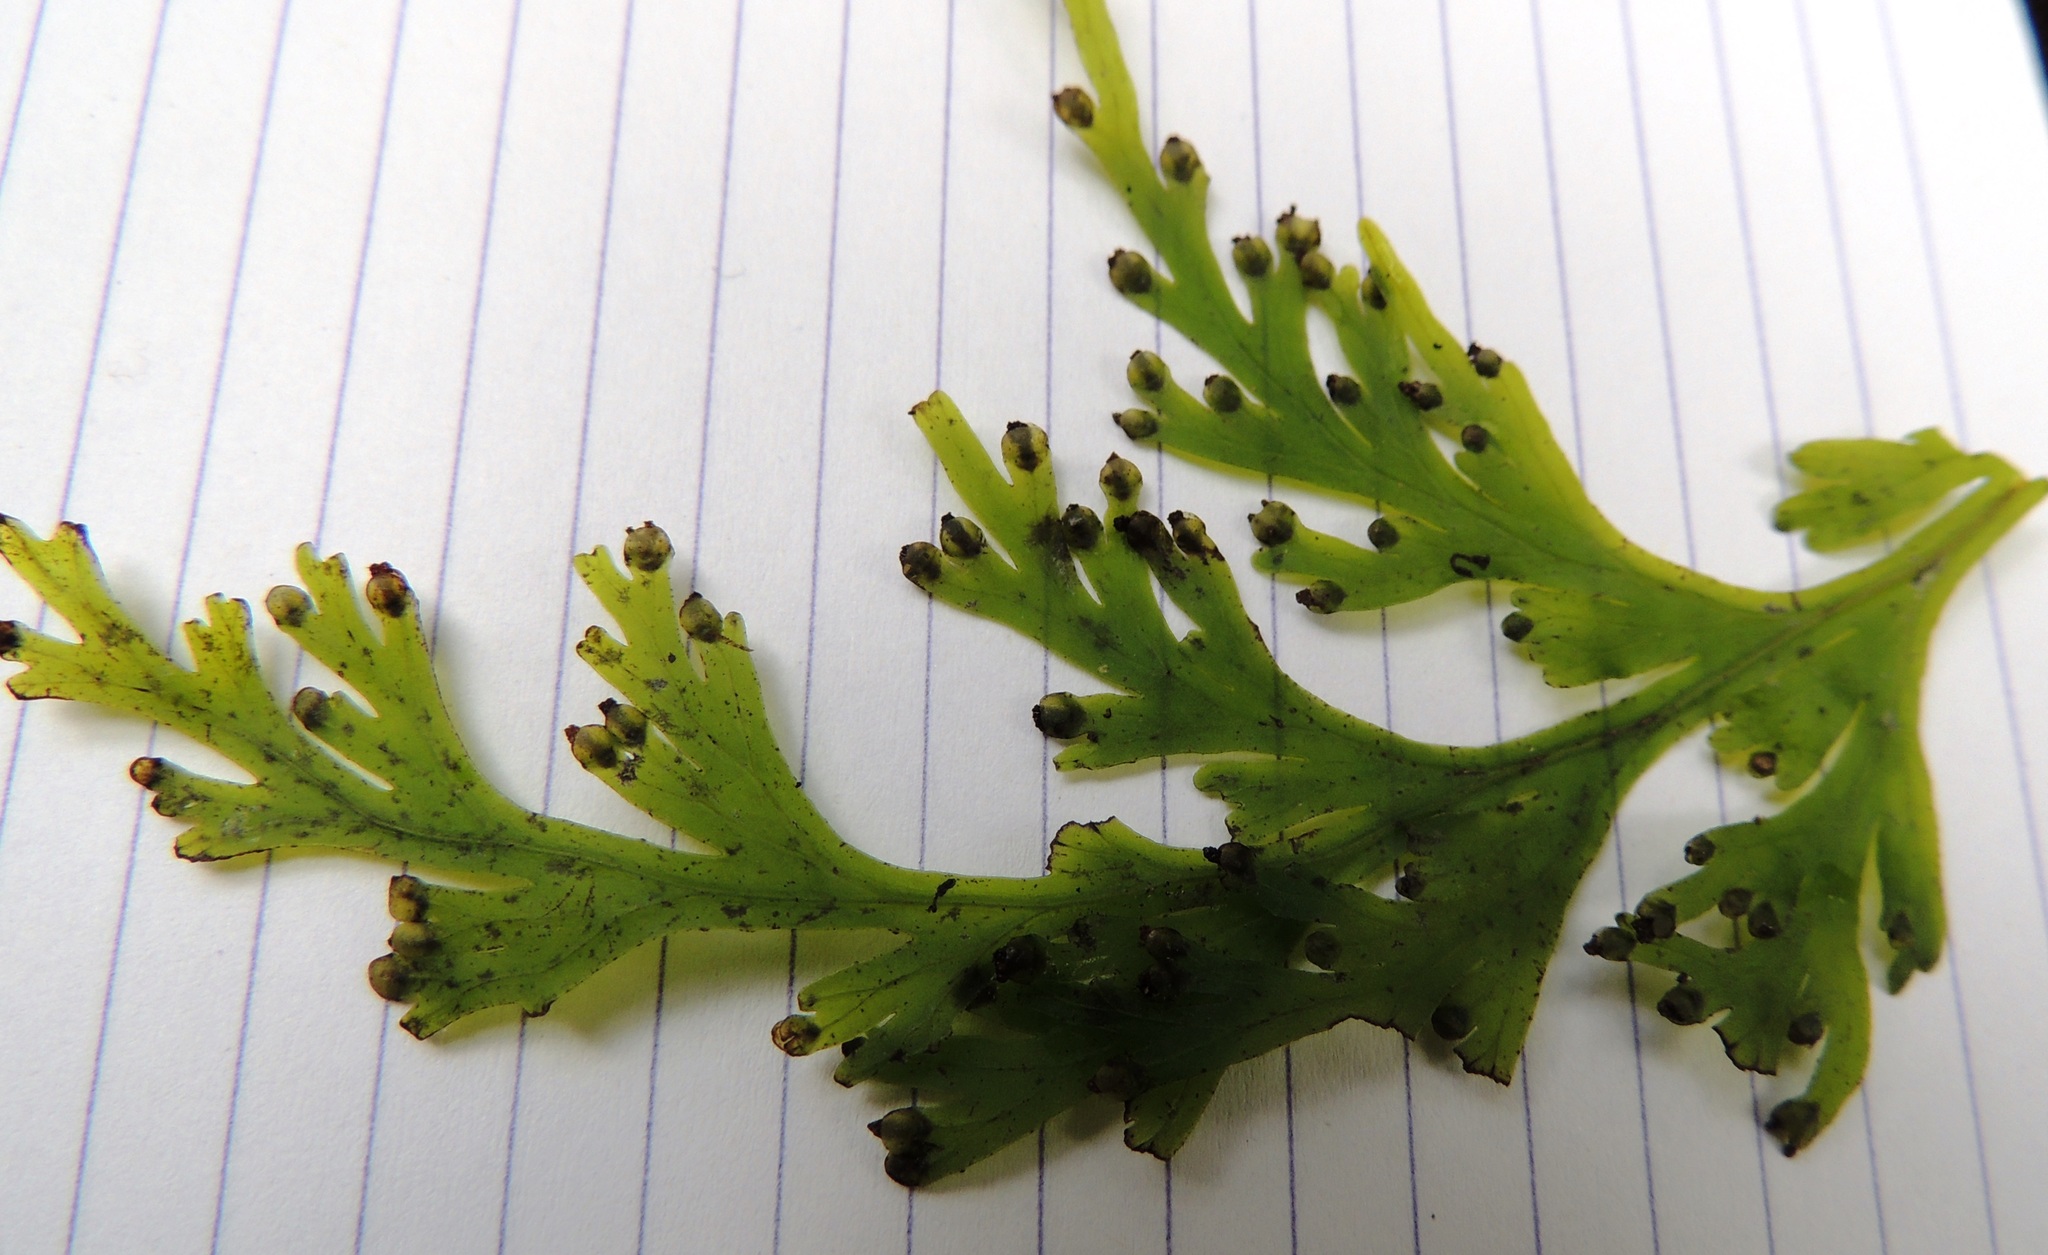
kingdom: Plantae
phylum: Tracheophyta
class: Polypodiopsida
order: Hymenophyllales
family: Hymenophyllaceae
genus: Hymenophyllum
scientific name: Hymenophyllum dilatatum
